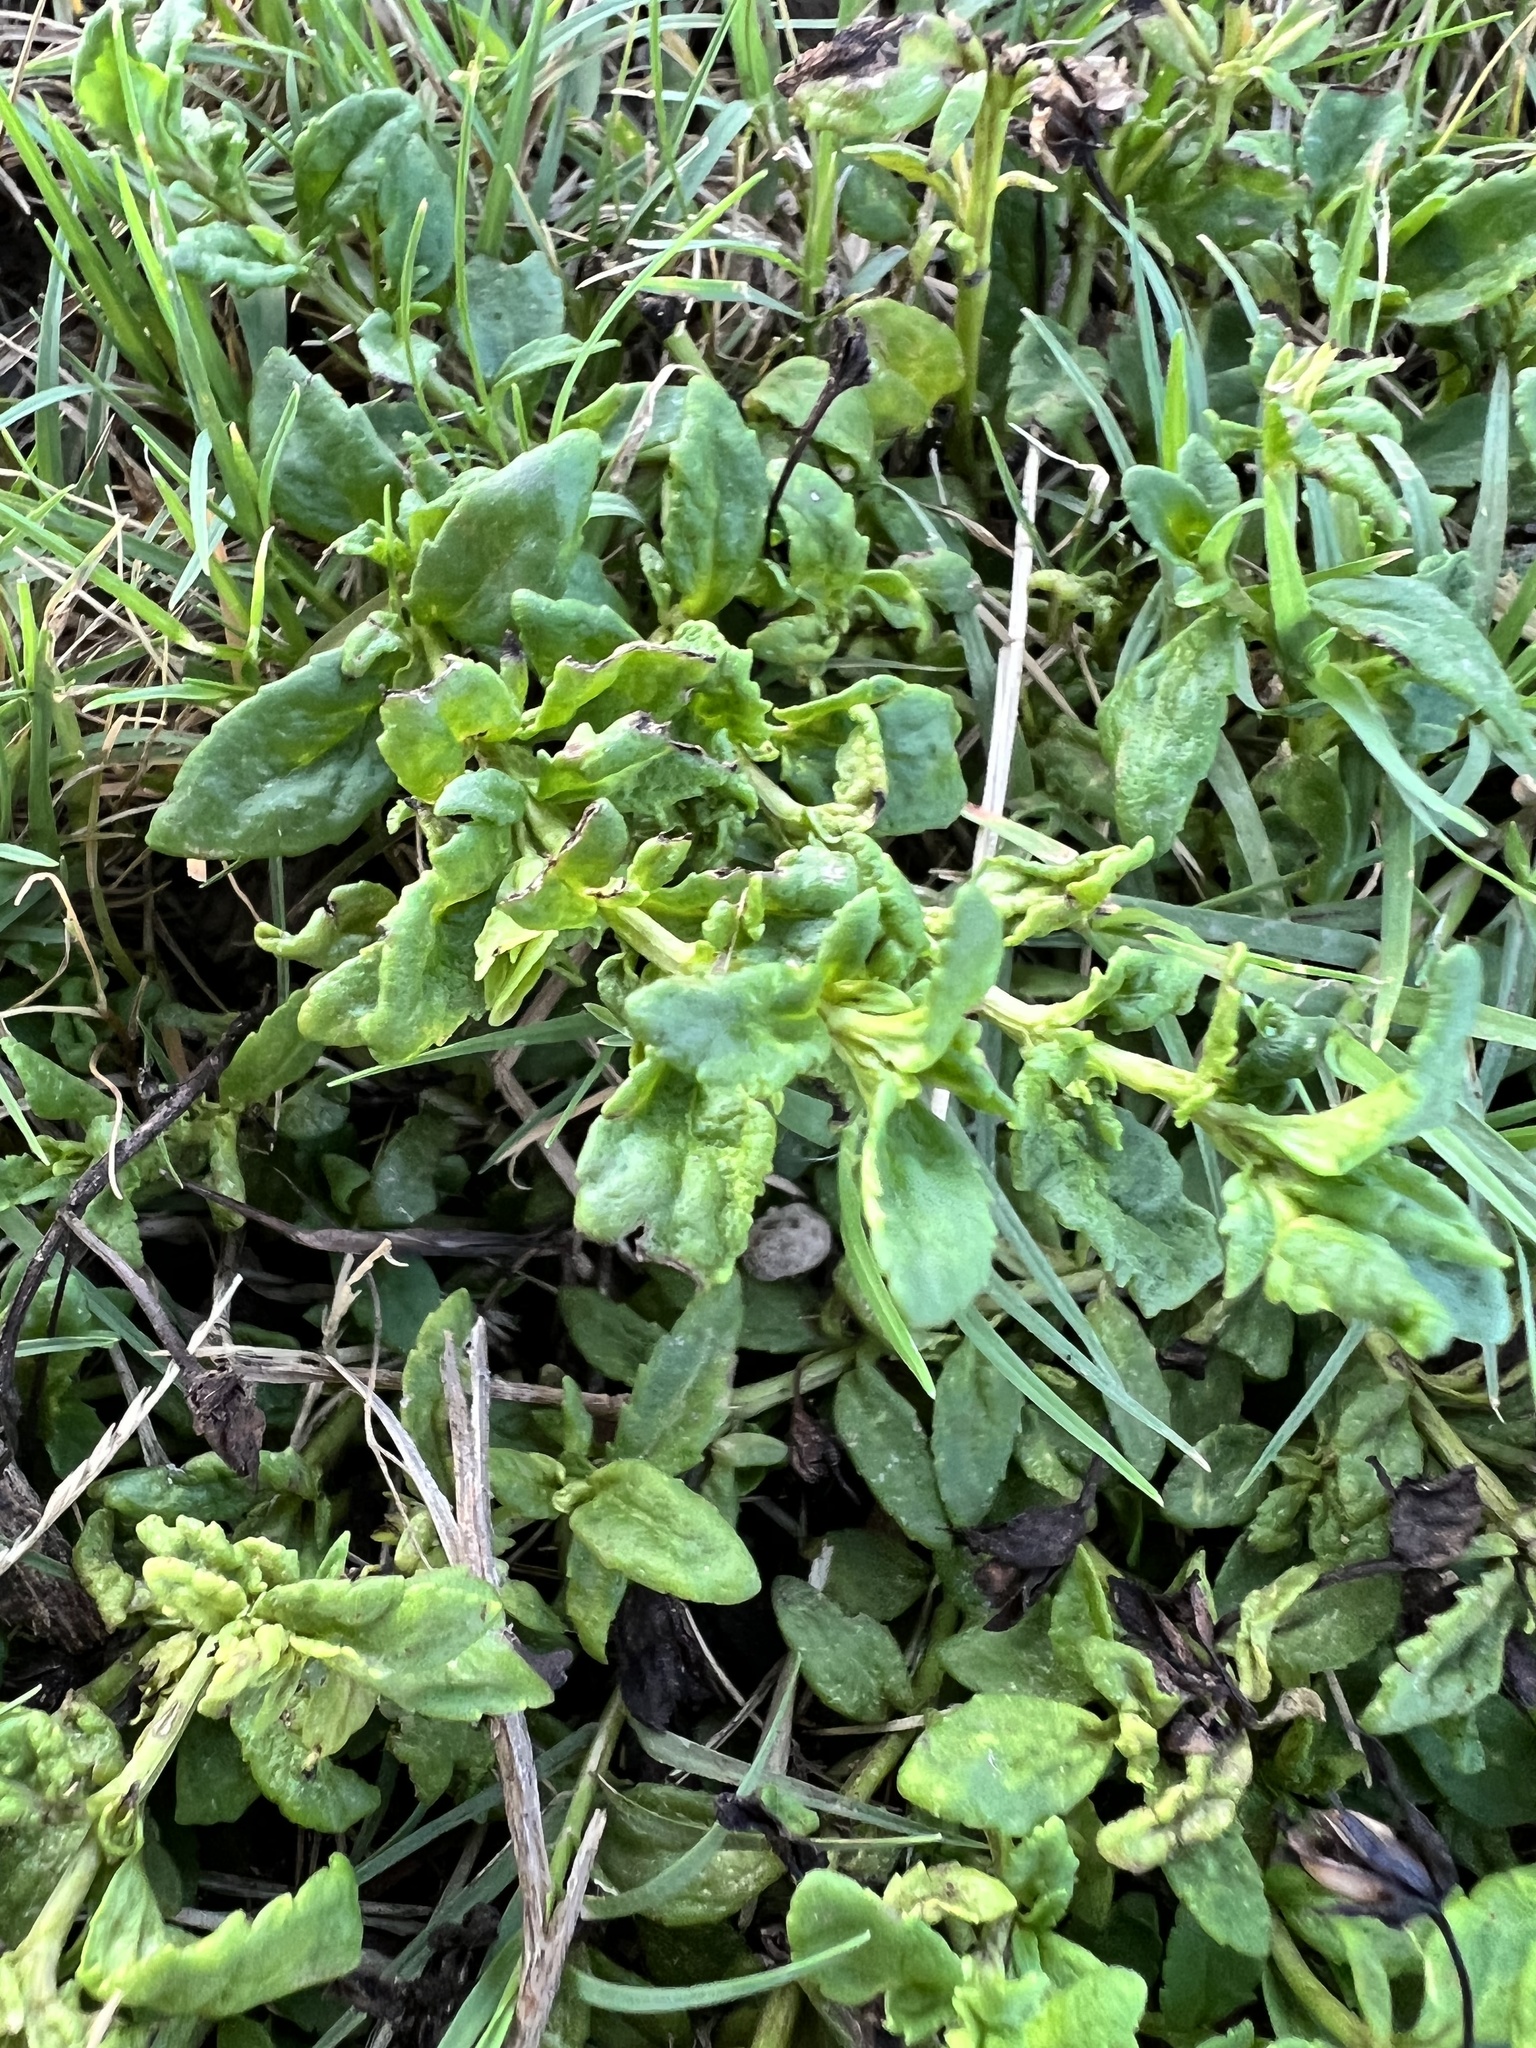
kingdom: Plantae
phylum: Tracheophyta
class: Magnoliopsida
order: Lamiales
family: Plantaginaceae
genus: Mecardonia
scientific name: Mecardonia procumbens
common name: Baby jump-up
